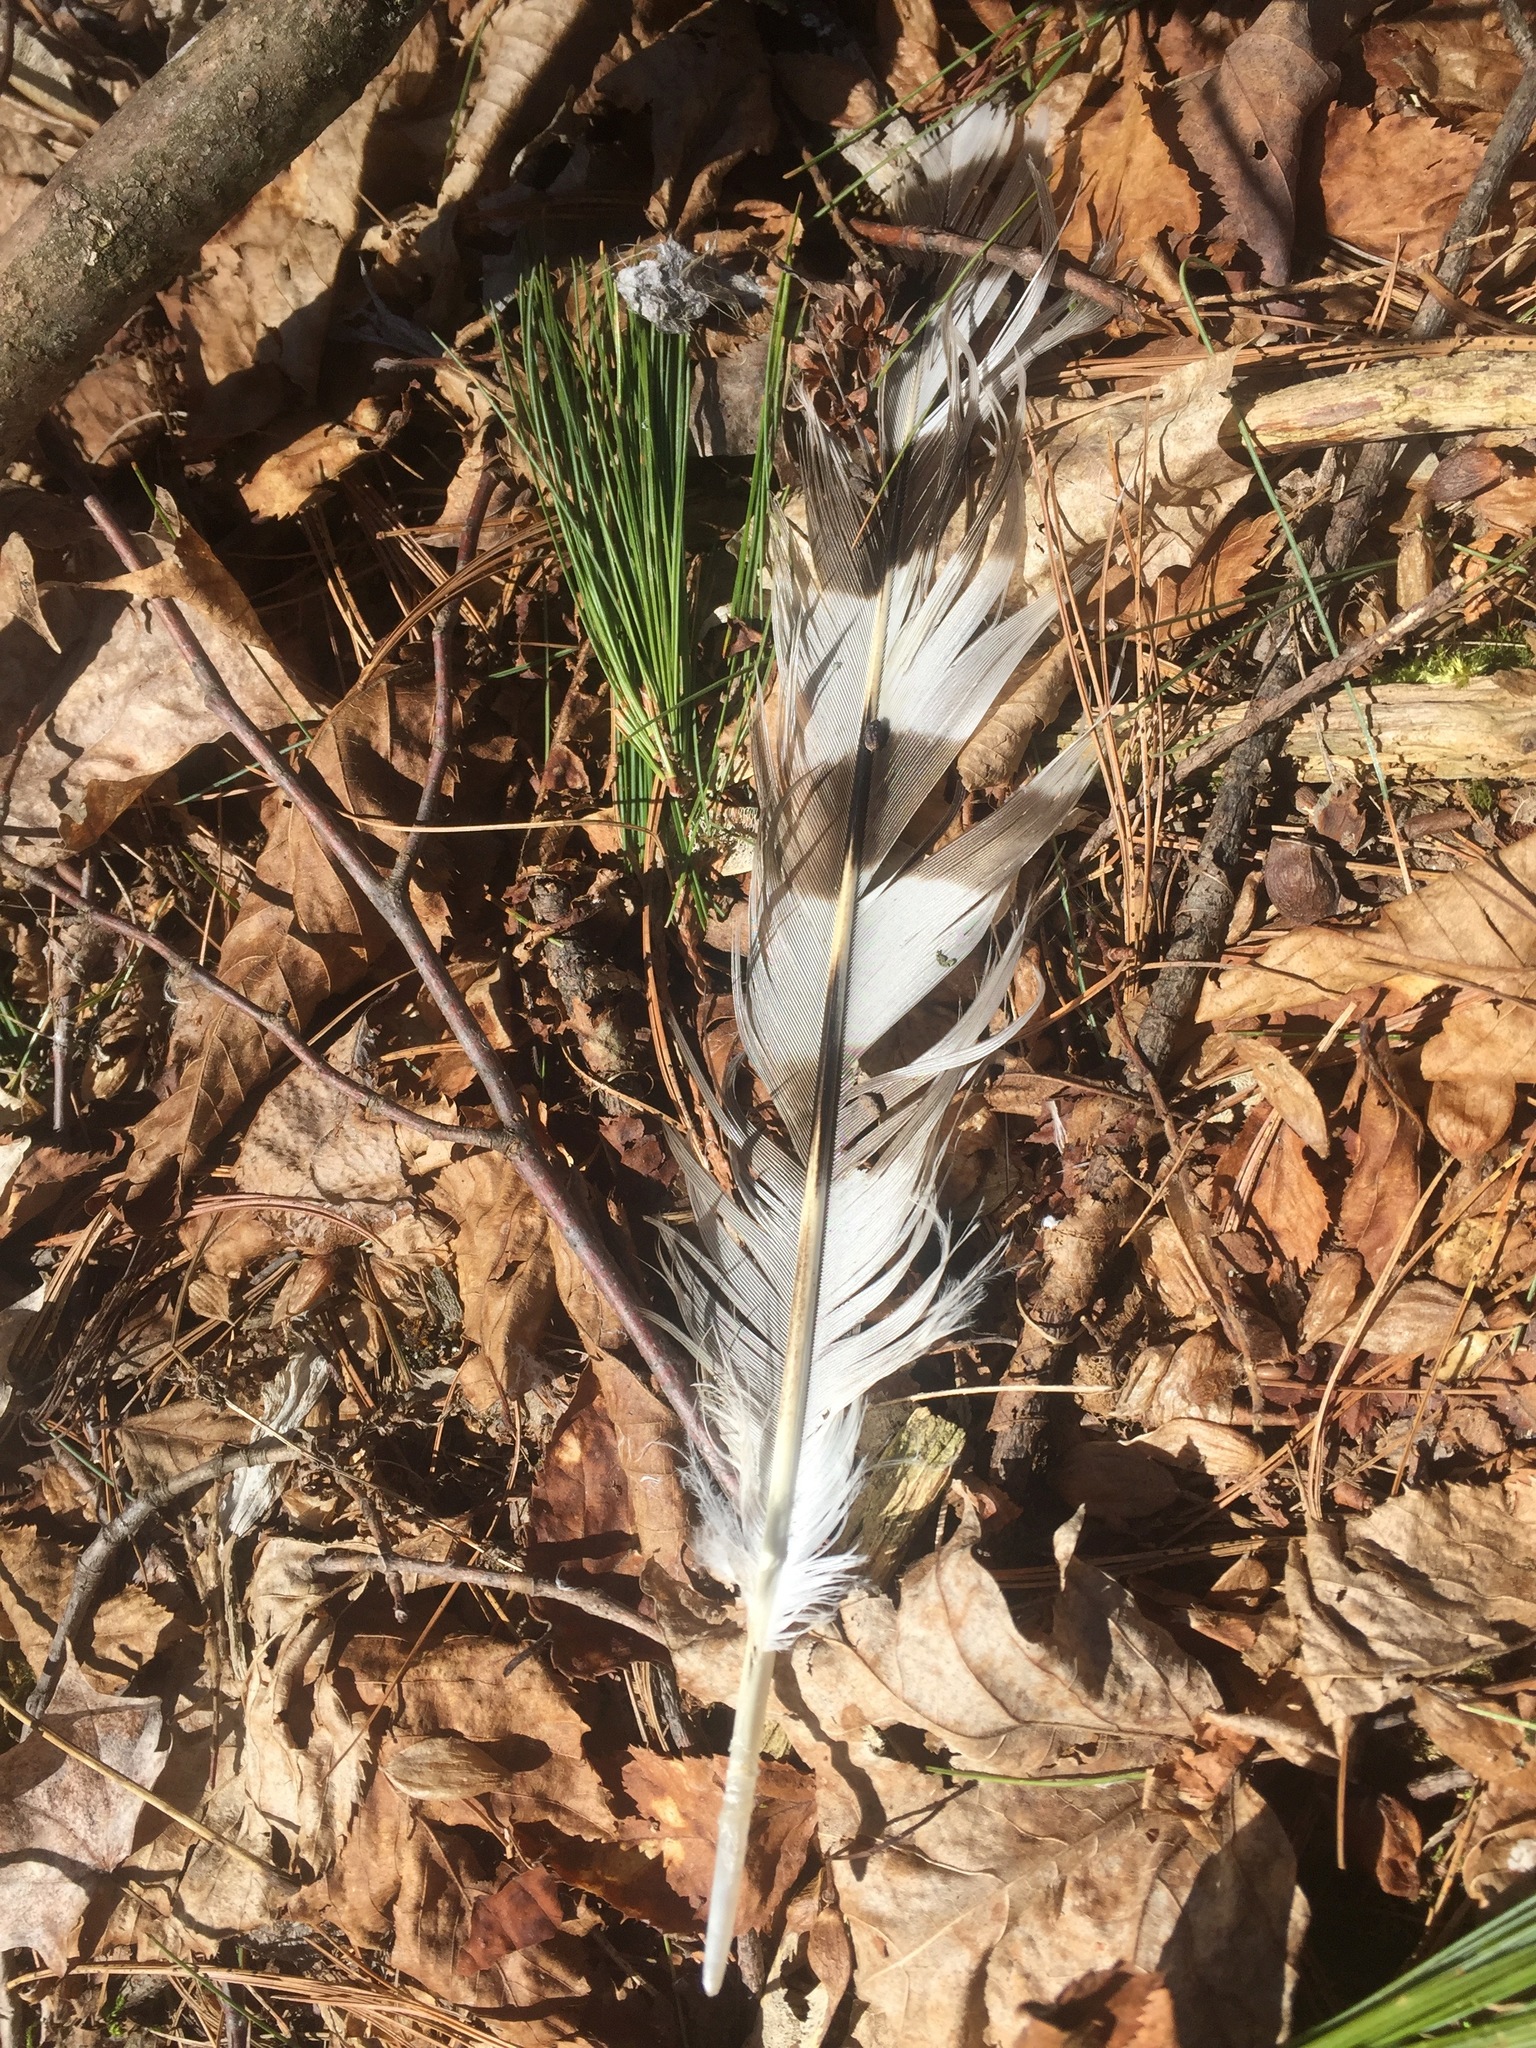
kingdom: Animalia
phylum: Chordata
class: Aves
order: Accipitriformes
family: Accipitridae
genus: Accipiter
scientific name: Accipiter cooperii
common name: Cooper's hawk
